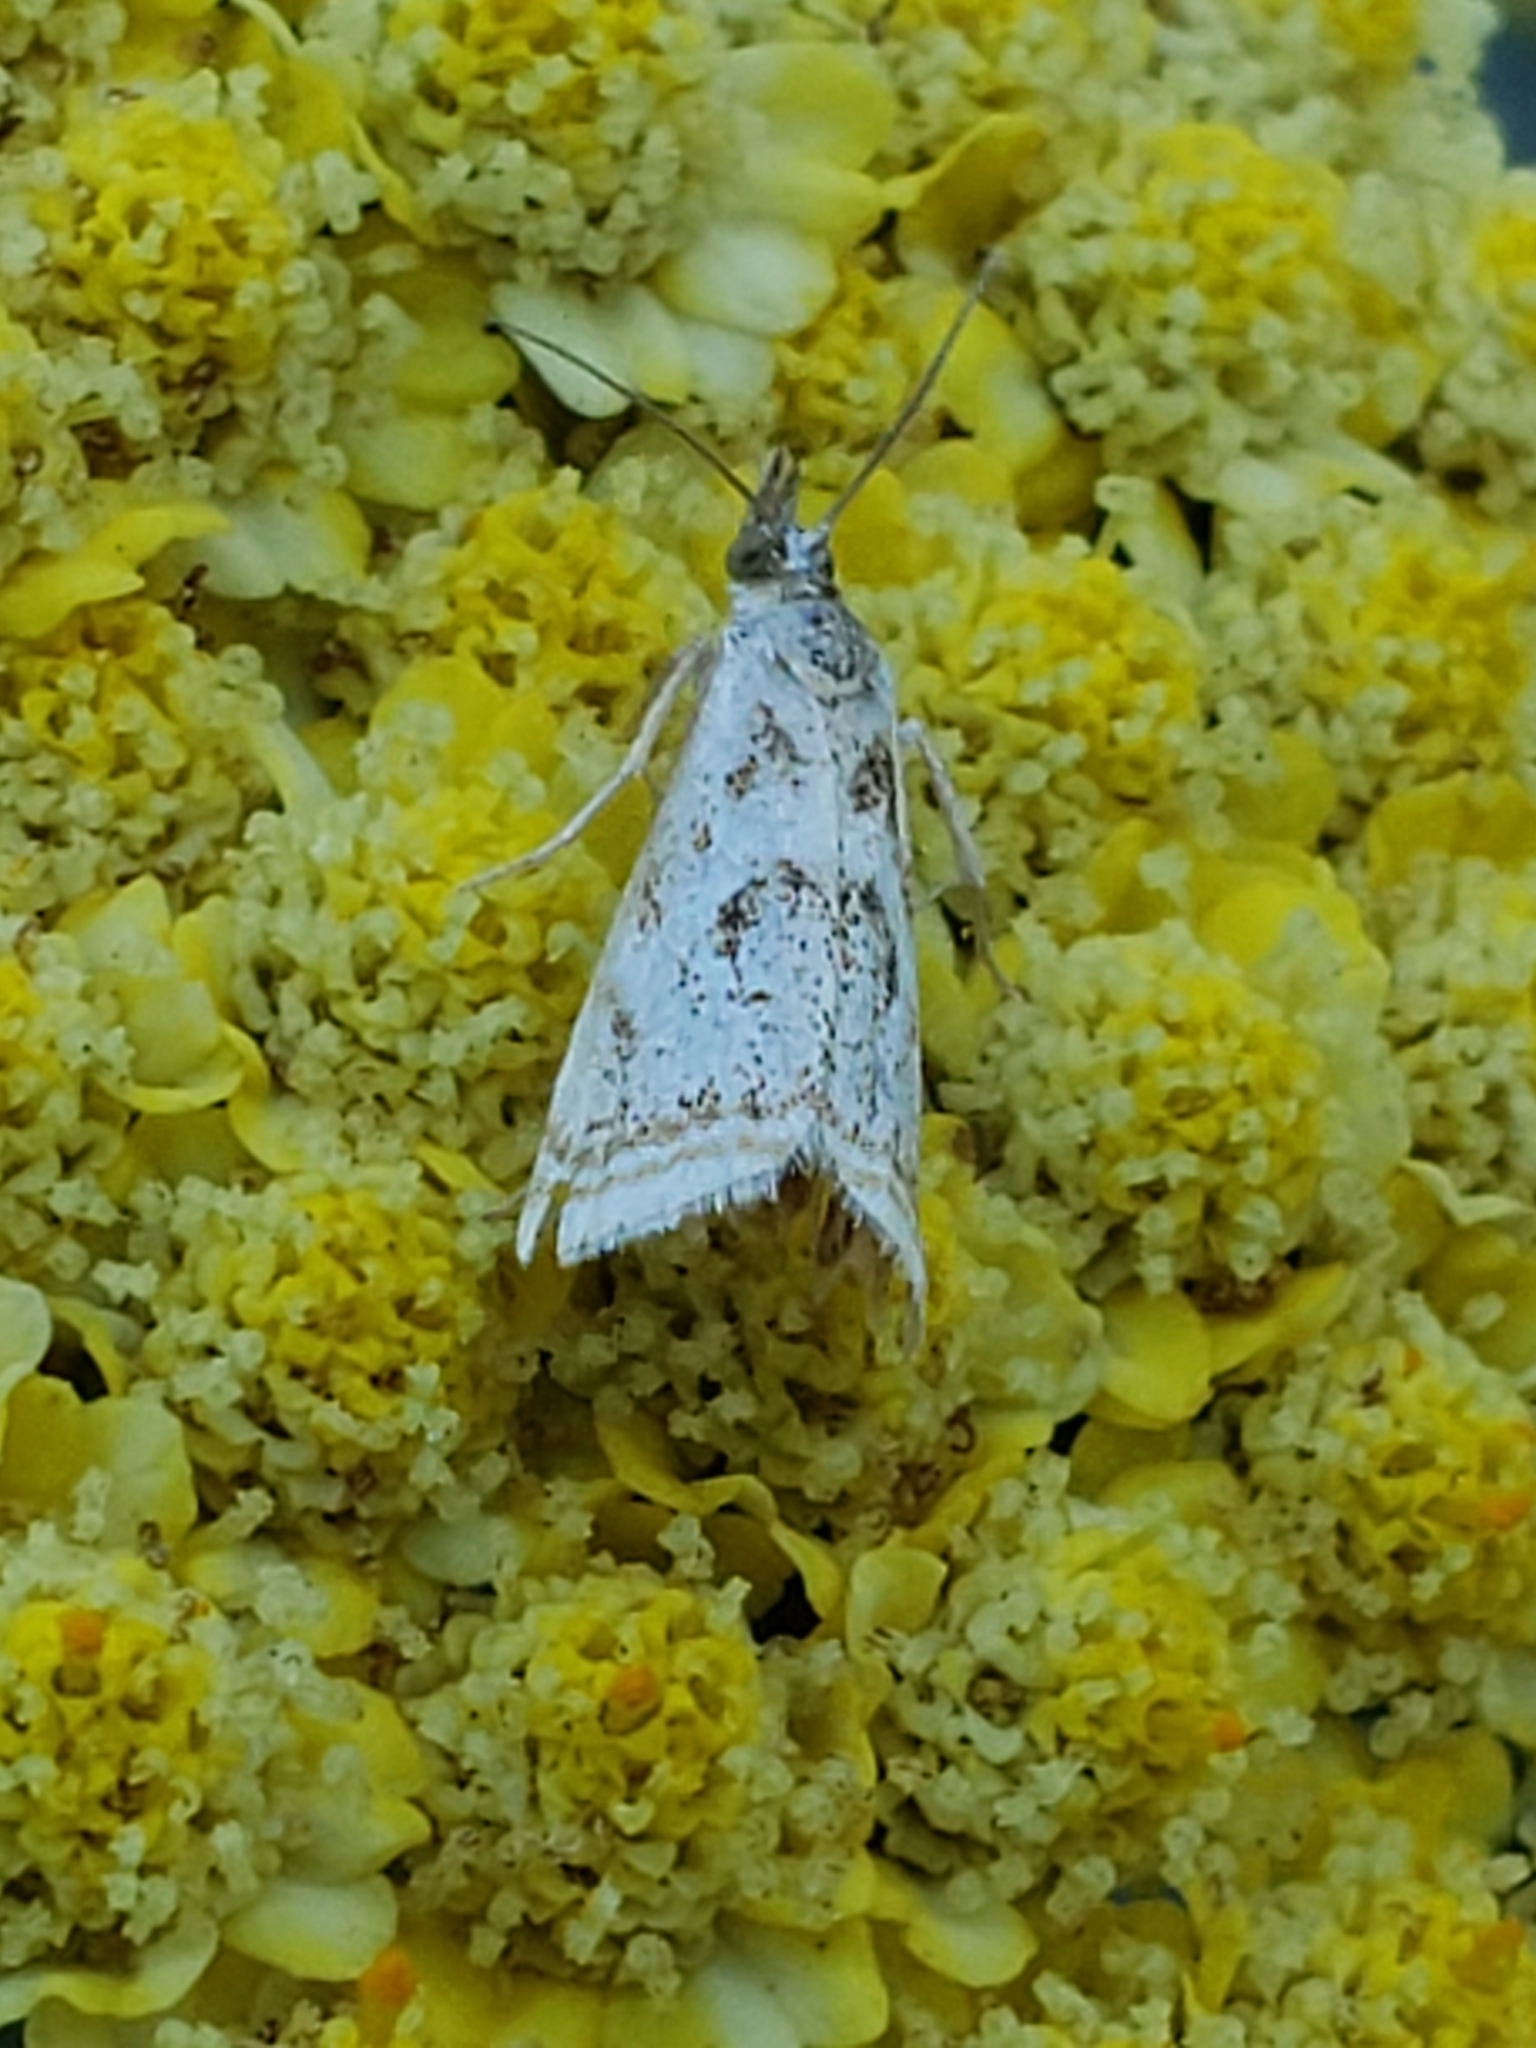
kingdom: Animalia
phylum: Arthropoda
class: Insecta
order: Lepidoptera
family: Crambidae
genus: Microcrambus
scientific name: Microcrambus elegans
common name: Elegant grass-veneer
